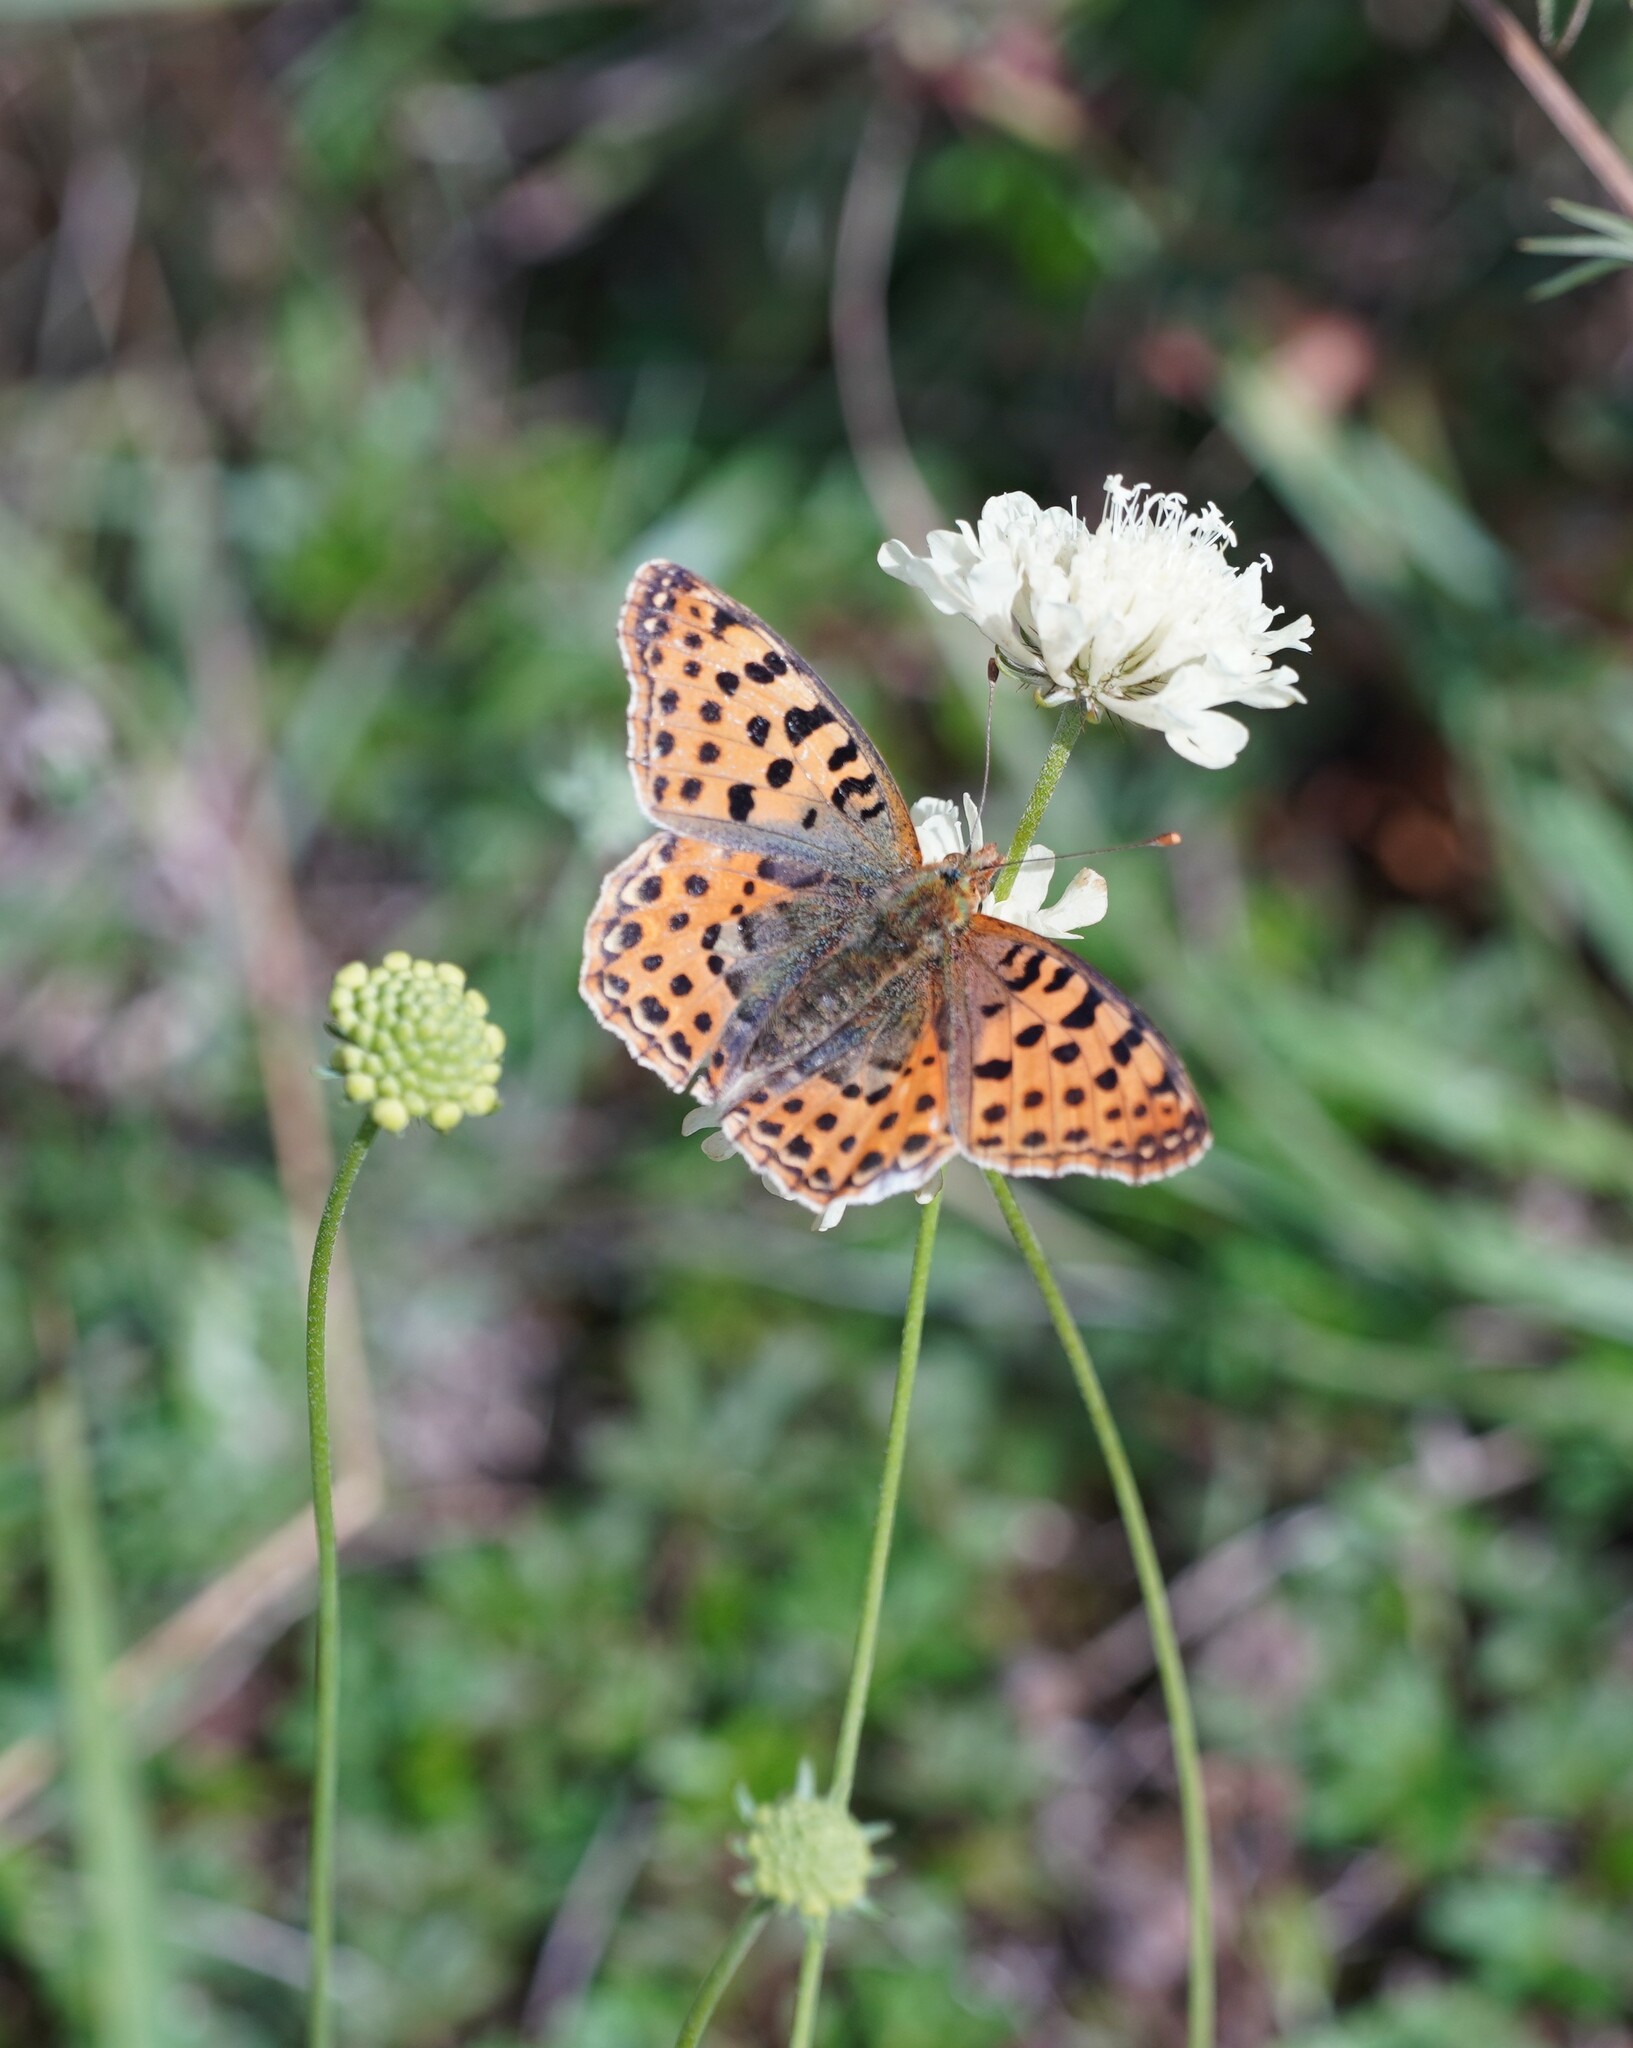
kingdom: Animalia
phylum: Arthropoda
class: Insecta
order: Lepidoptera
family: Nymphalidae
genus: Issoria
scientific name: Issoria lathonia
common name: Queen of spain fritillary
